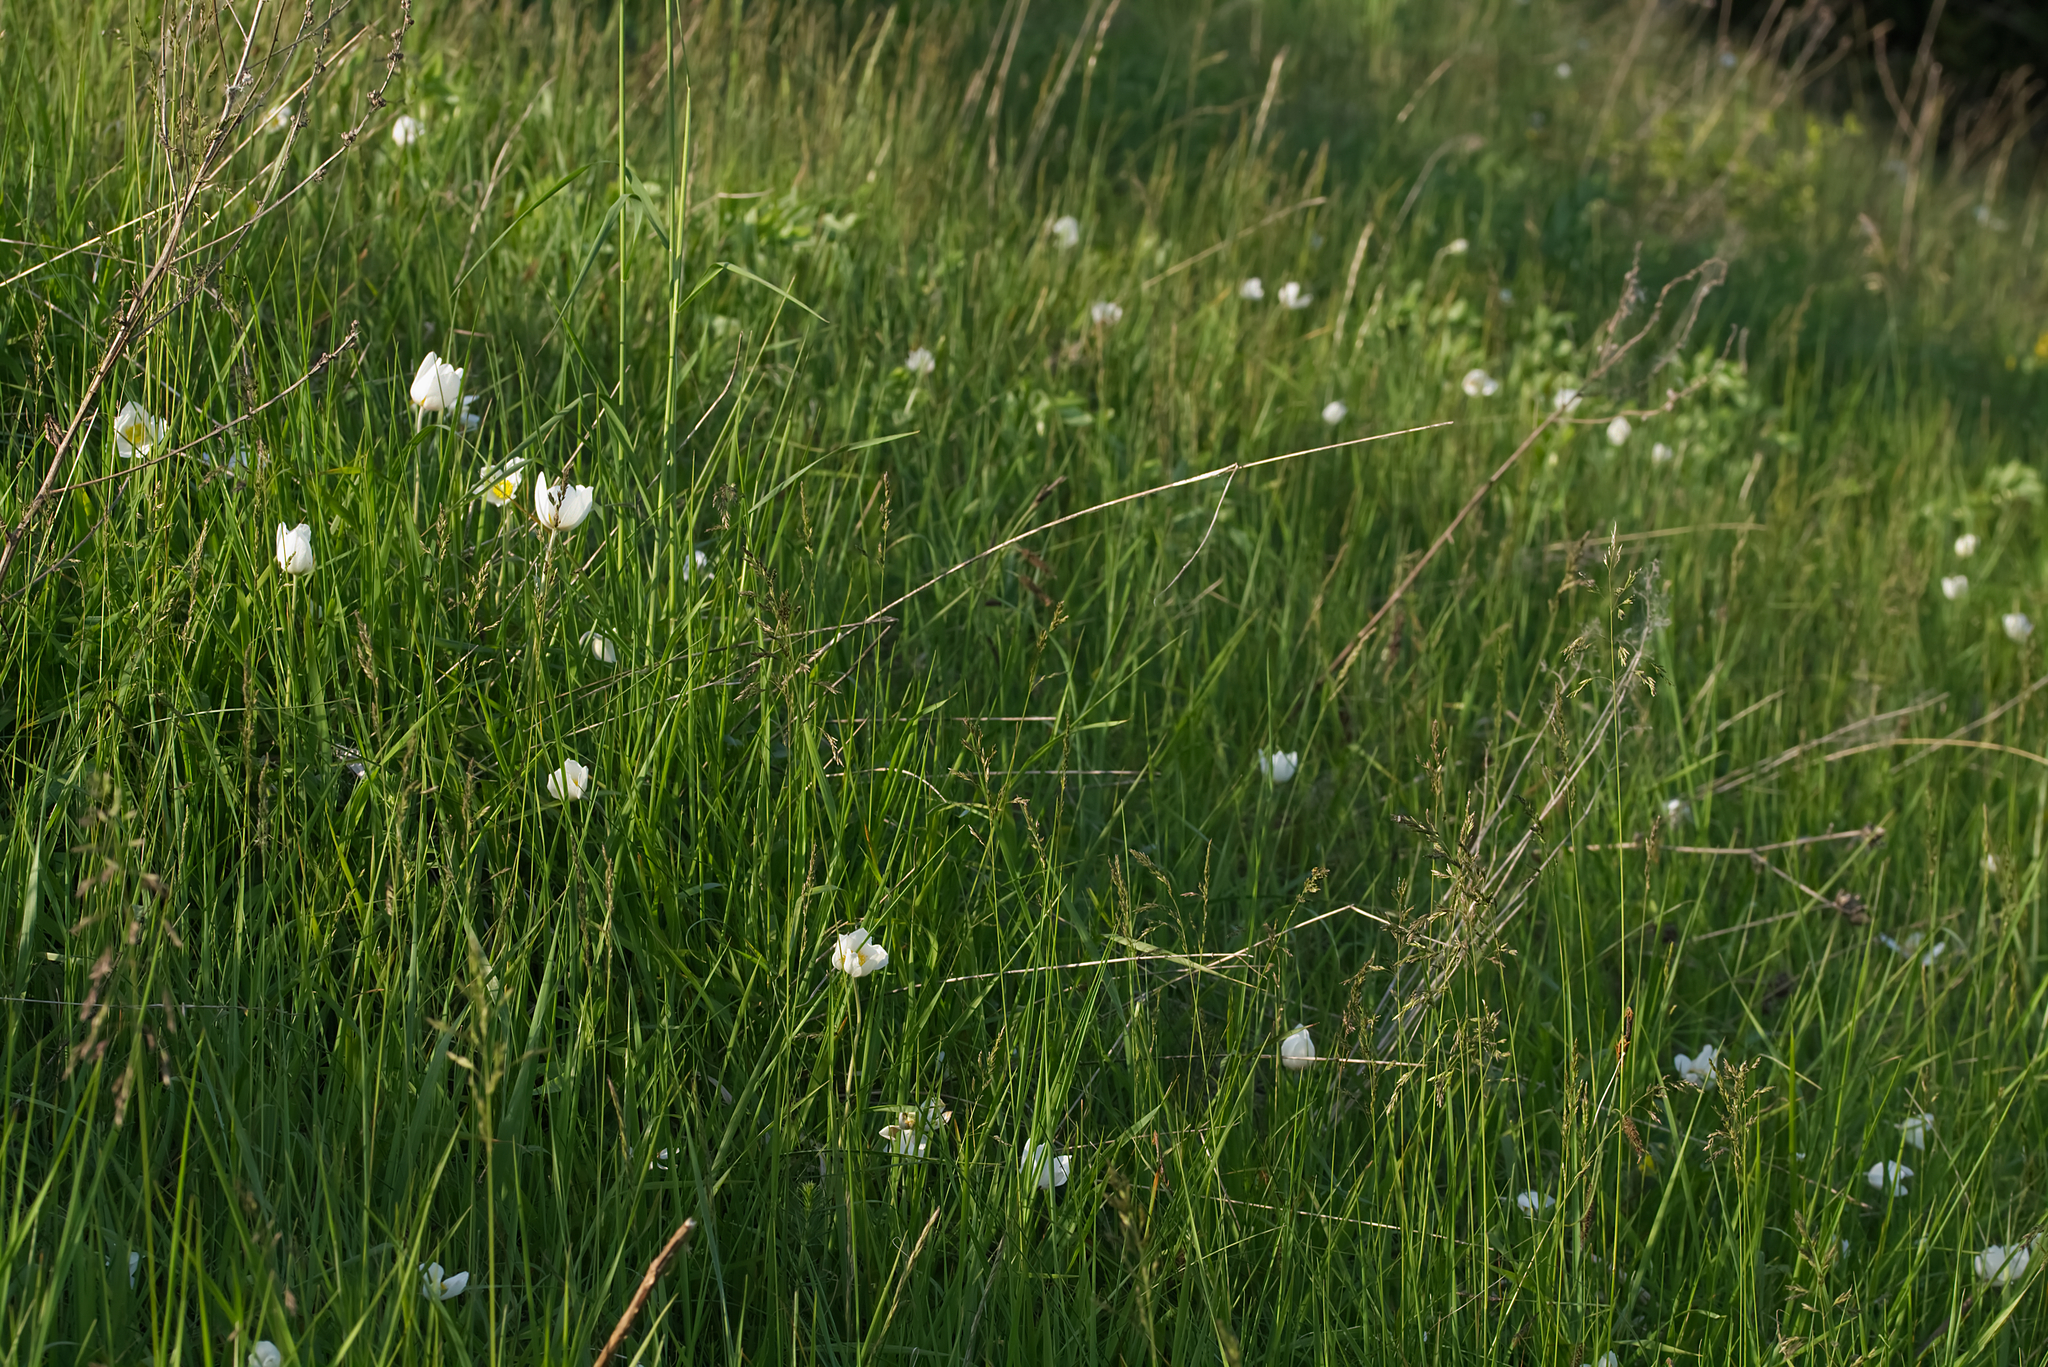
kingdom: Plantae
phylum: Tracheophyta
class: Magnoliopsida
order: Ranunculales
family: Ranunculaceae
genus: Anemone
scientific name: Anemone sylvestris
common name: Snowdrop anemone
